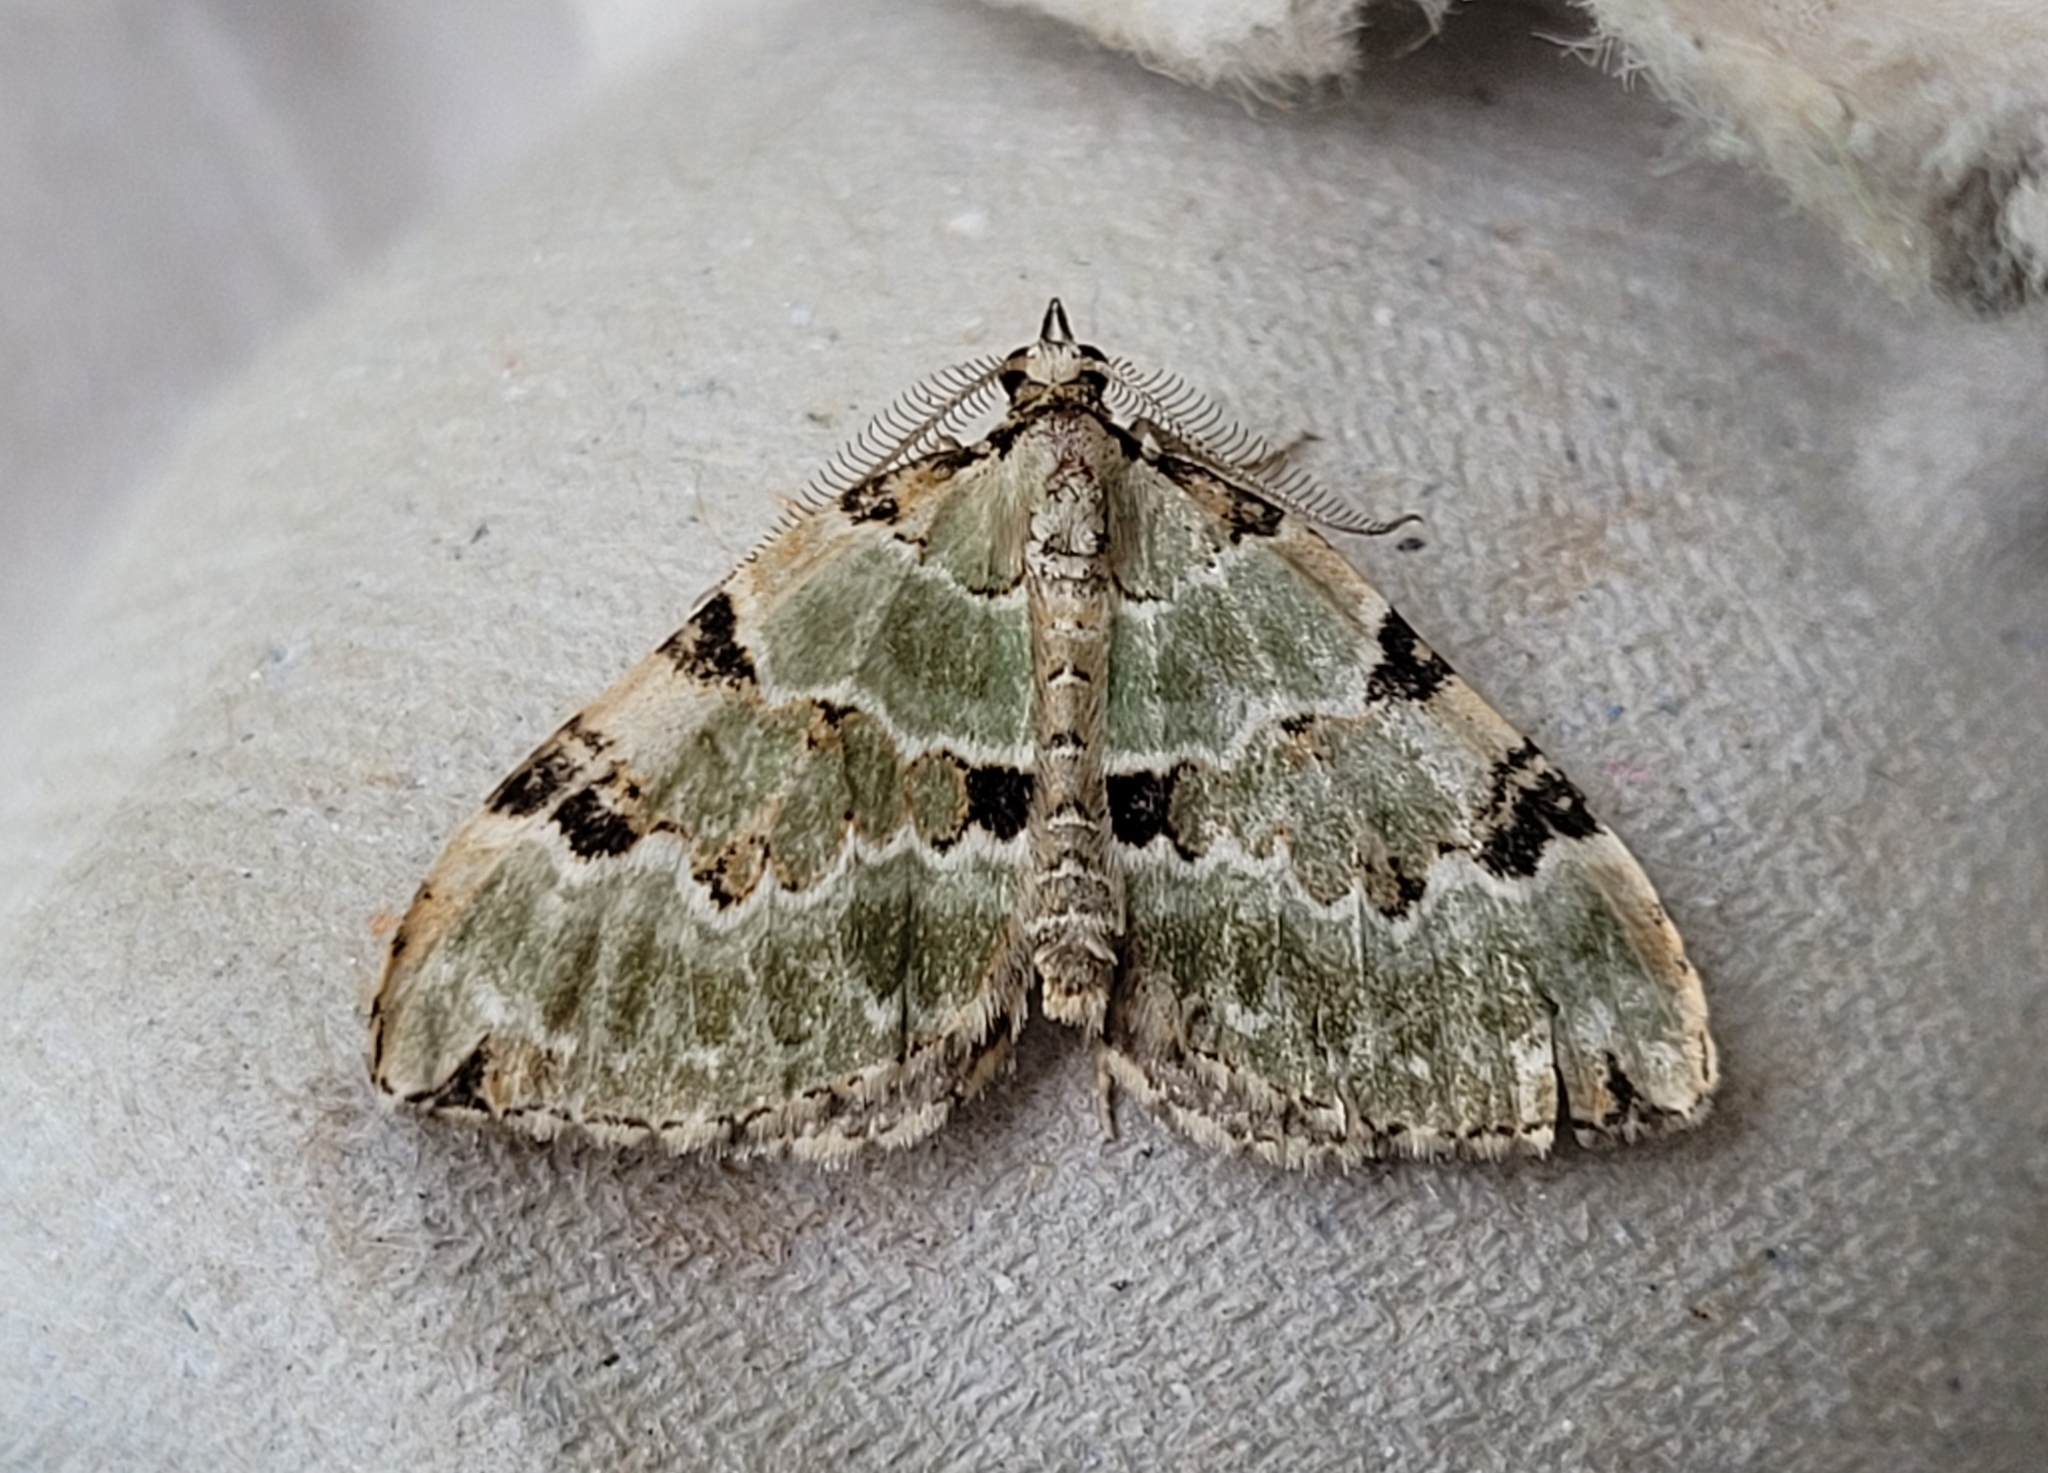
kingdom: Animalia
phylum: Arthropoda
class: Insecta
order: Lepidoptera
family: Geometridae
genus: Colostygia
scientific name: Colostygia pectinataria
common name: Green carpet
